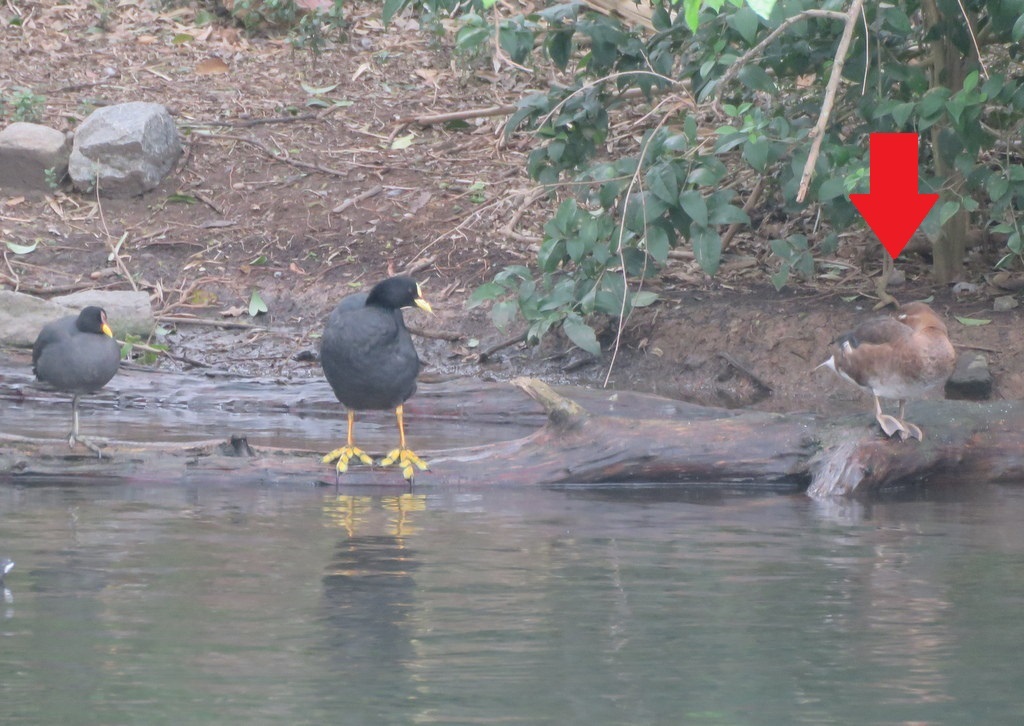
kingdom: Animalia
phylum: Chordata
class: Aves
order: Anseriformes
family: Anatidae
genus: Netta
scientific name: Netta peposaca
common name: Rosy-billed pochard
